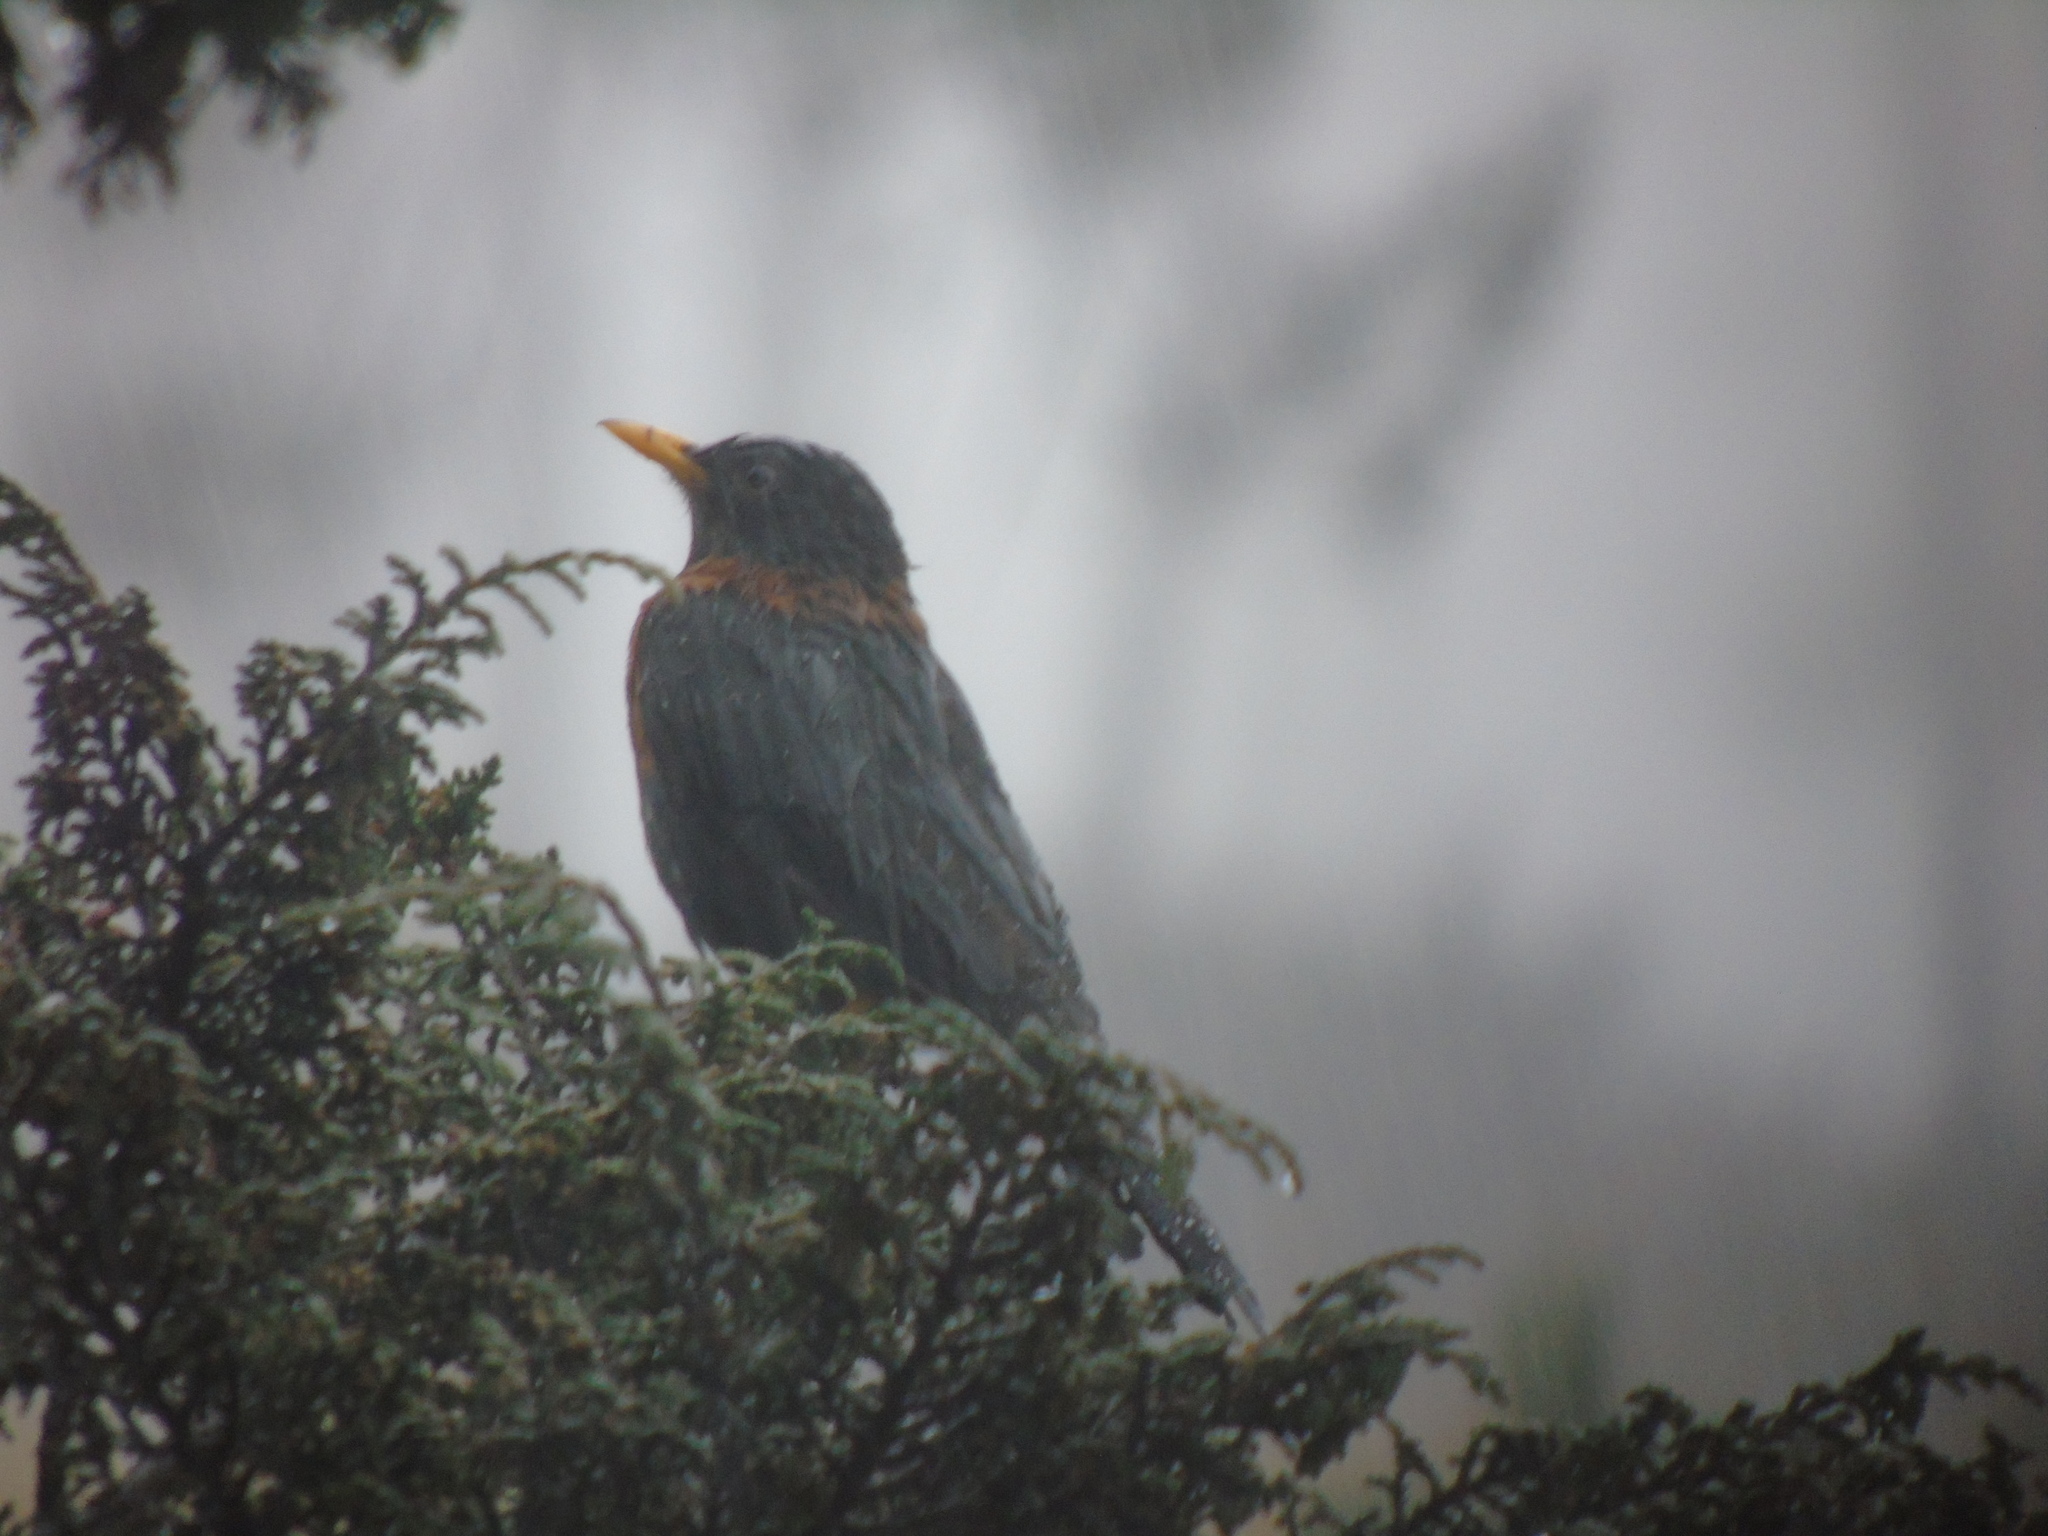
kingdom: Animalia
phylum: Chordata
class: Aves
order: Passeriformes
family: Turdidae
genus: Turdus
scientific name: Turdus rufitorques
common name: Rufous-collared thrush
